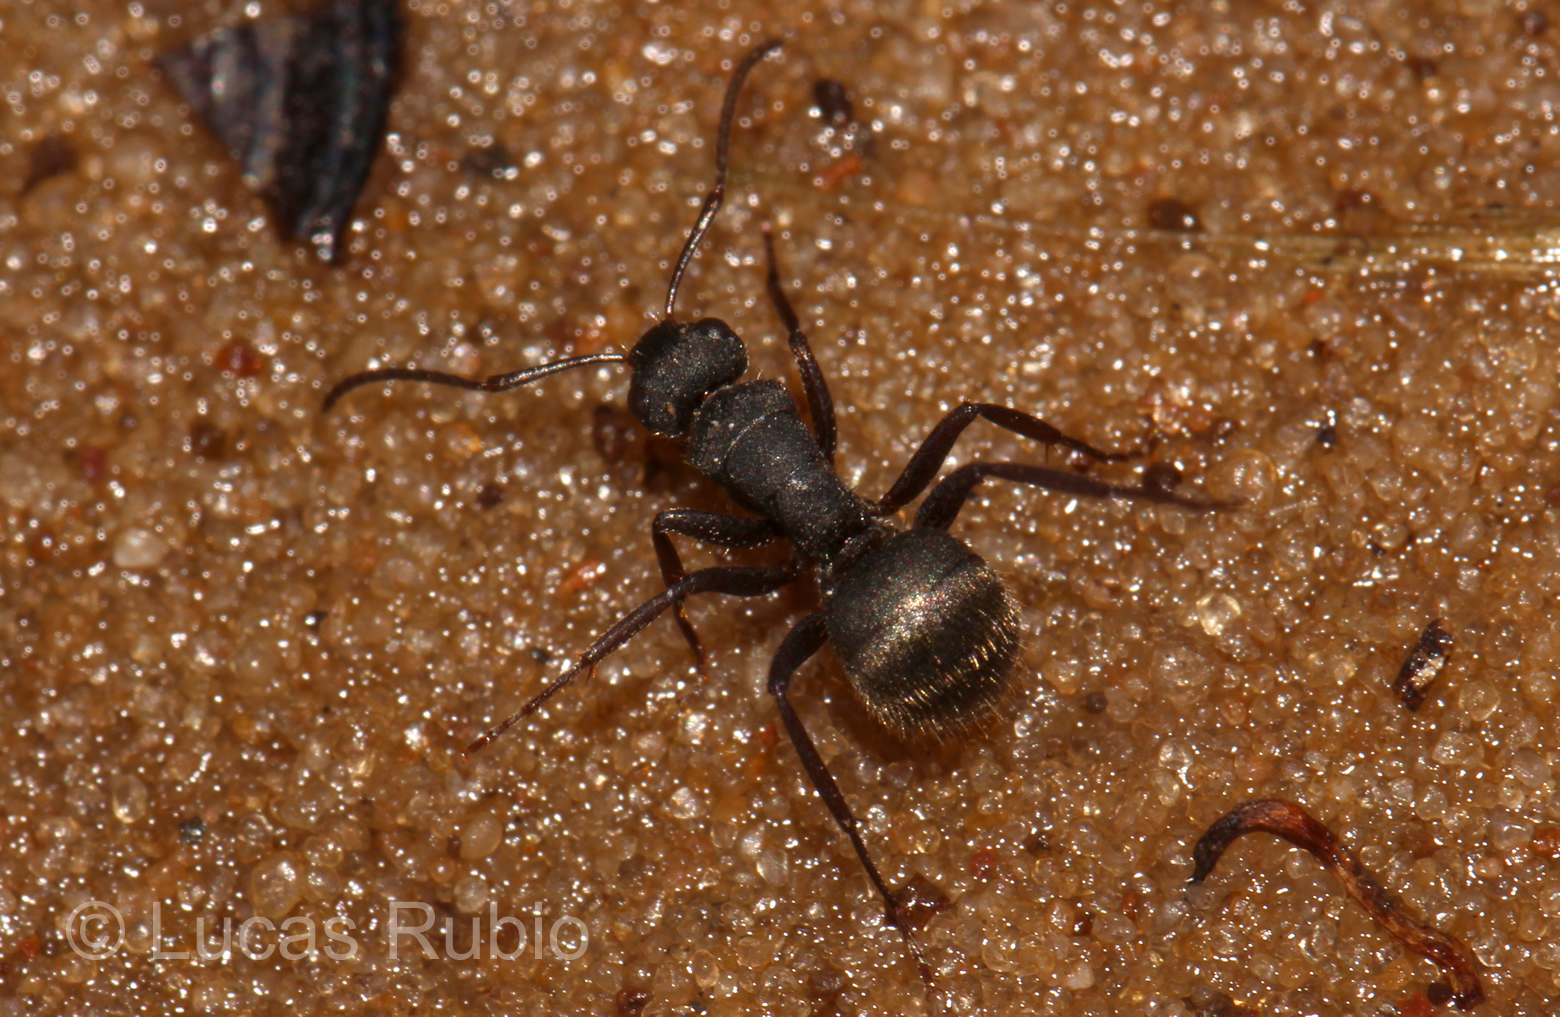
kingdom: Animalia
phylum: Arthropoda
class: Insecta
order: Hymenoptera
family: Formicidae
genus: Camponotus
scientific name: Camponotus mus
